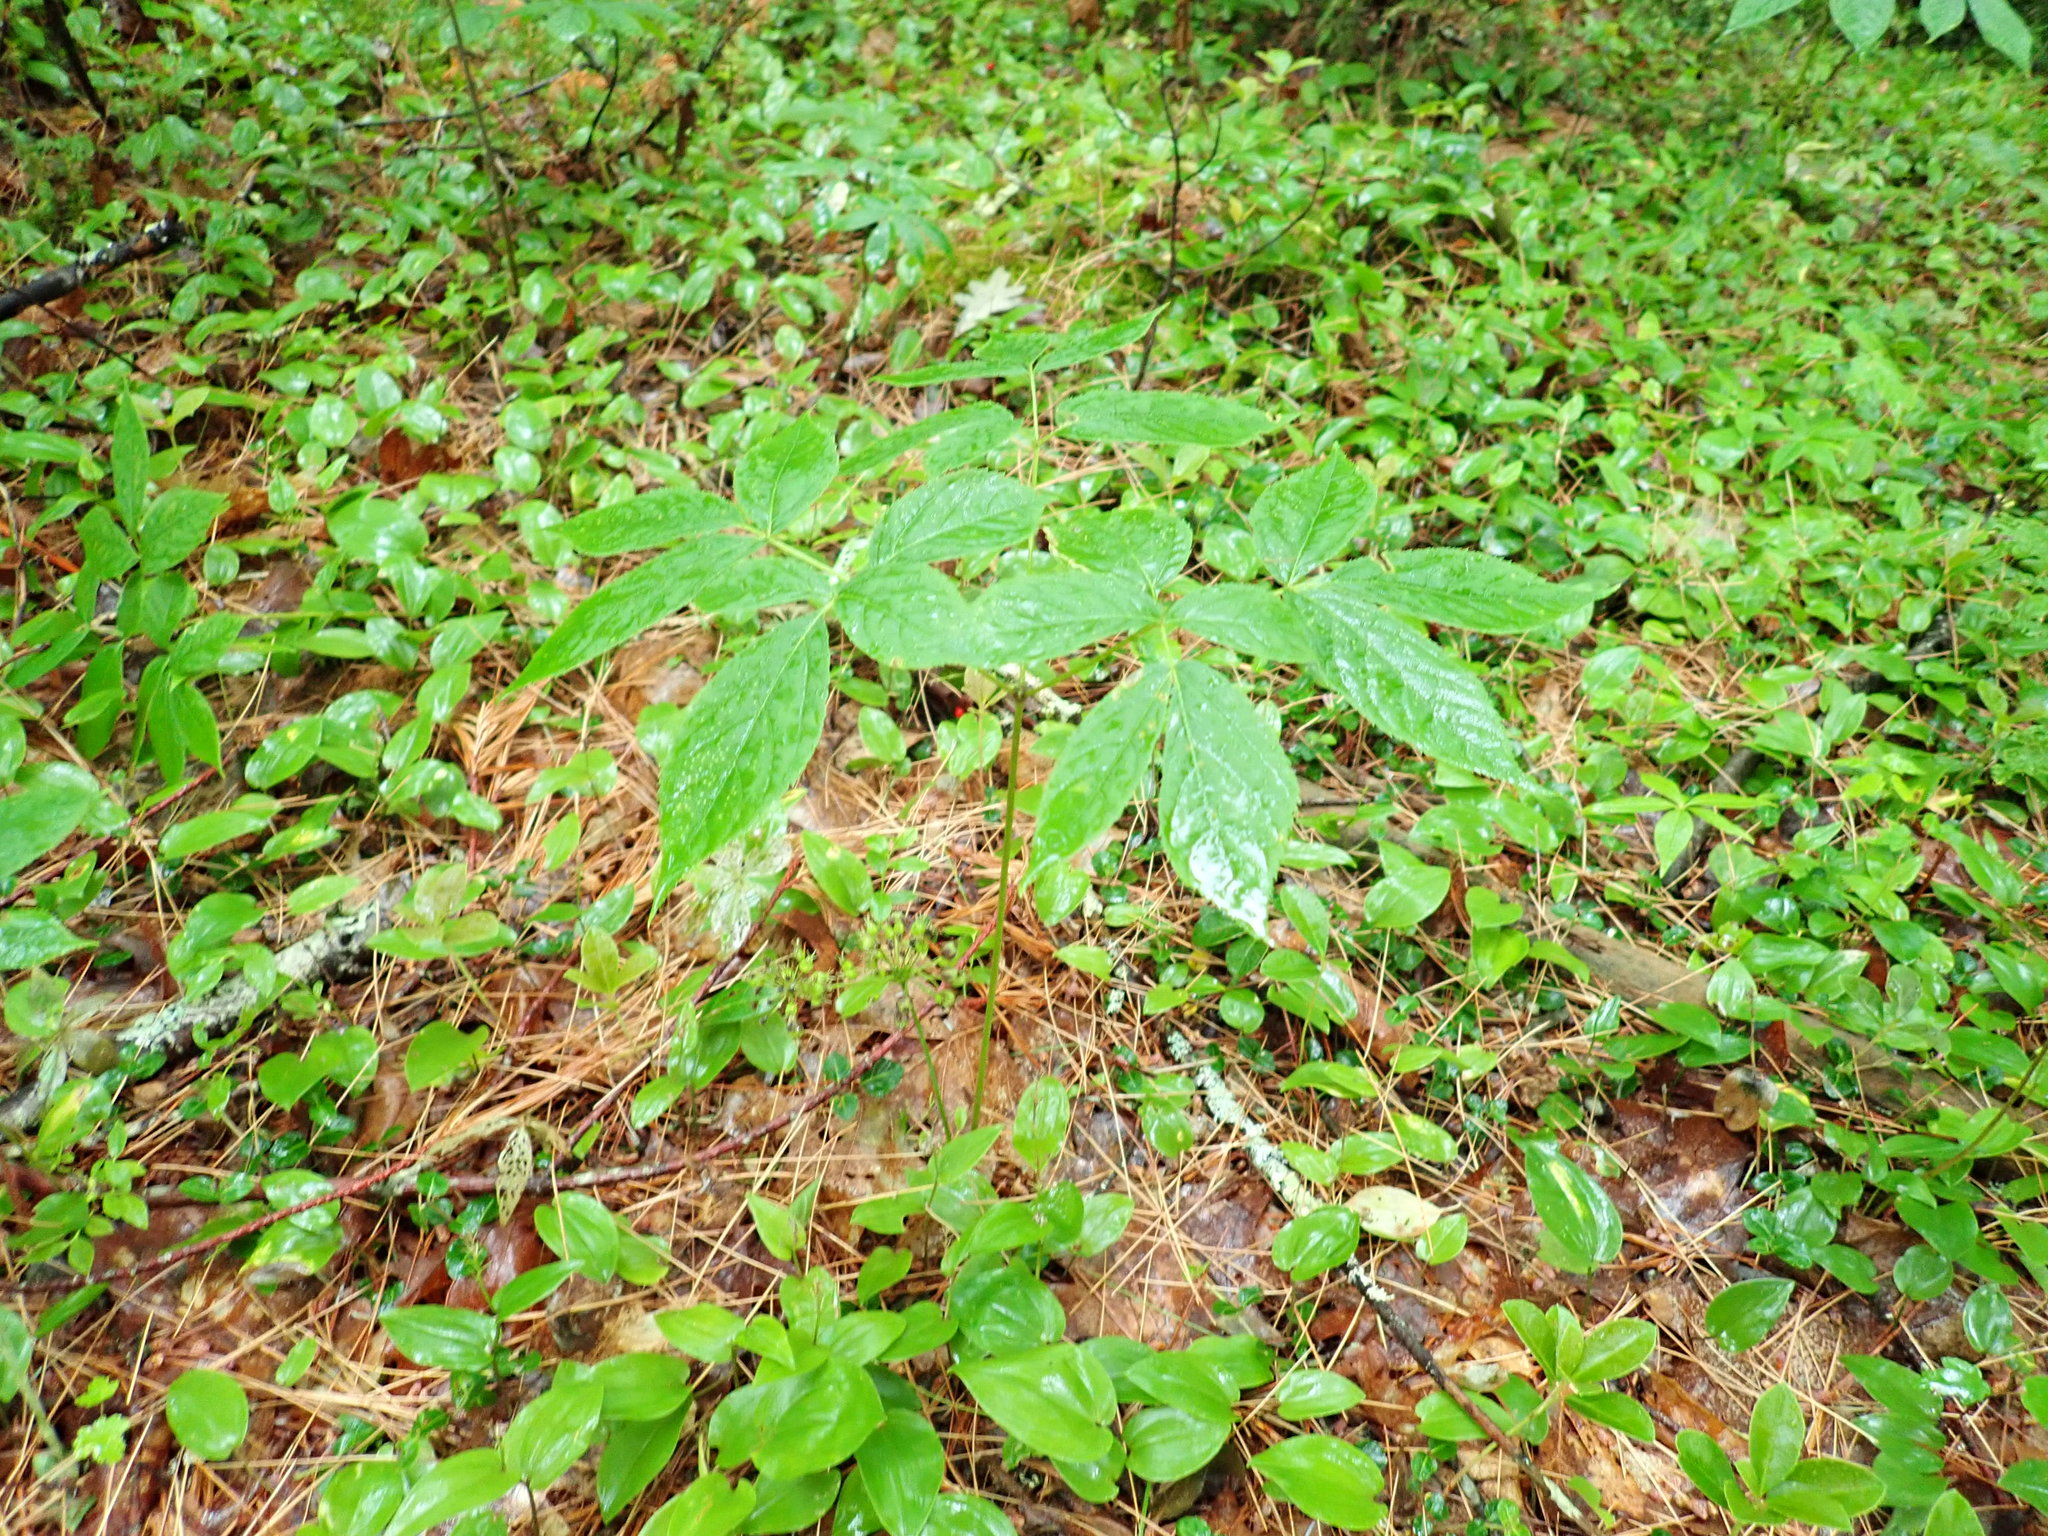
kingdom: Plantae
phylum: Tracheophyta
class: Magnoliopsida
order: Apiales
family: Araliaceae
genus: Aralia
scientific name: Aralia nudicaulis
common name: Wild sarsaparilla
